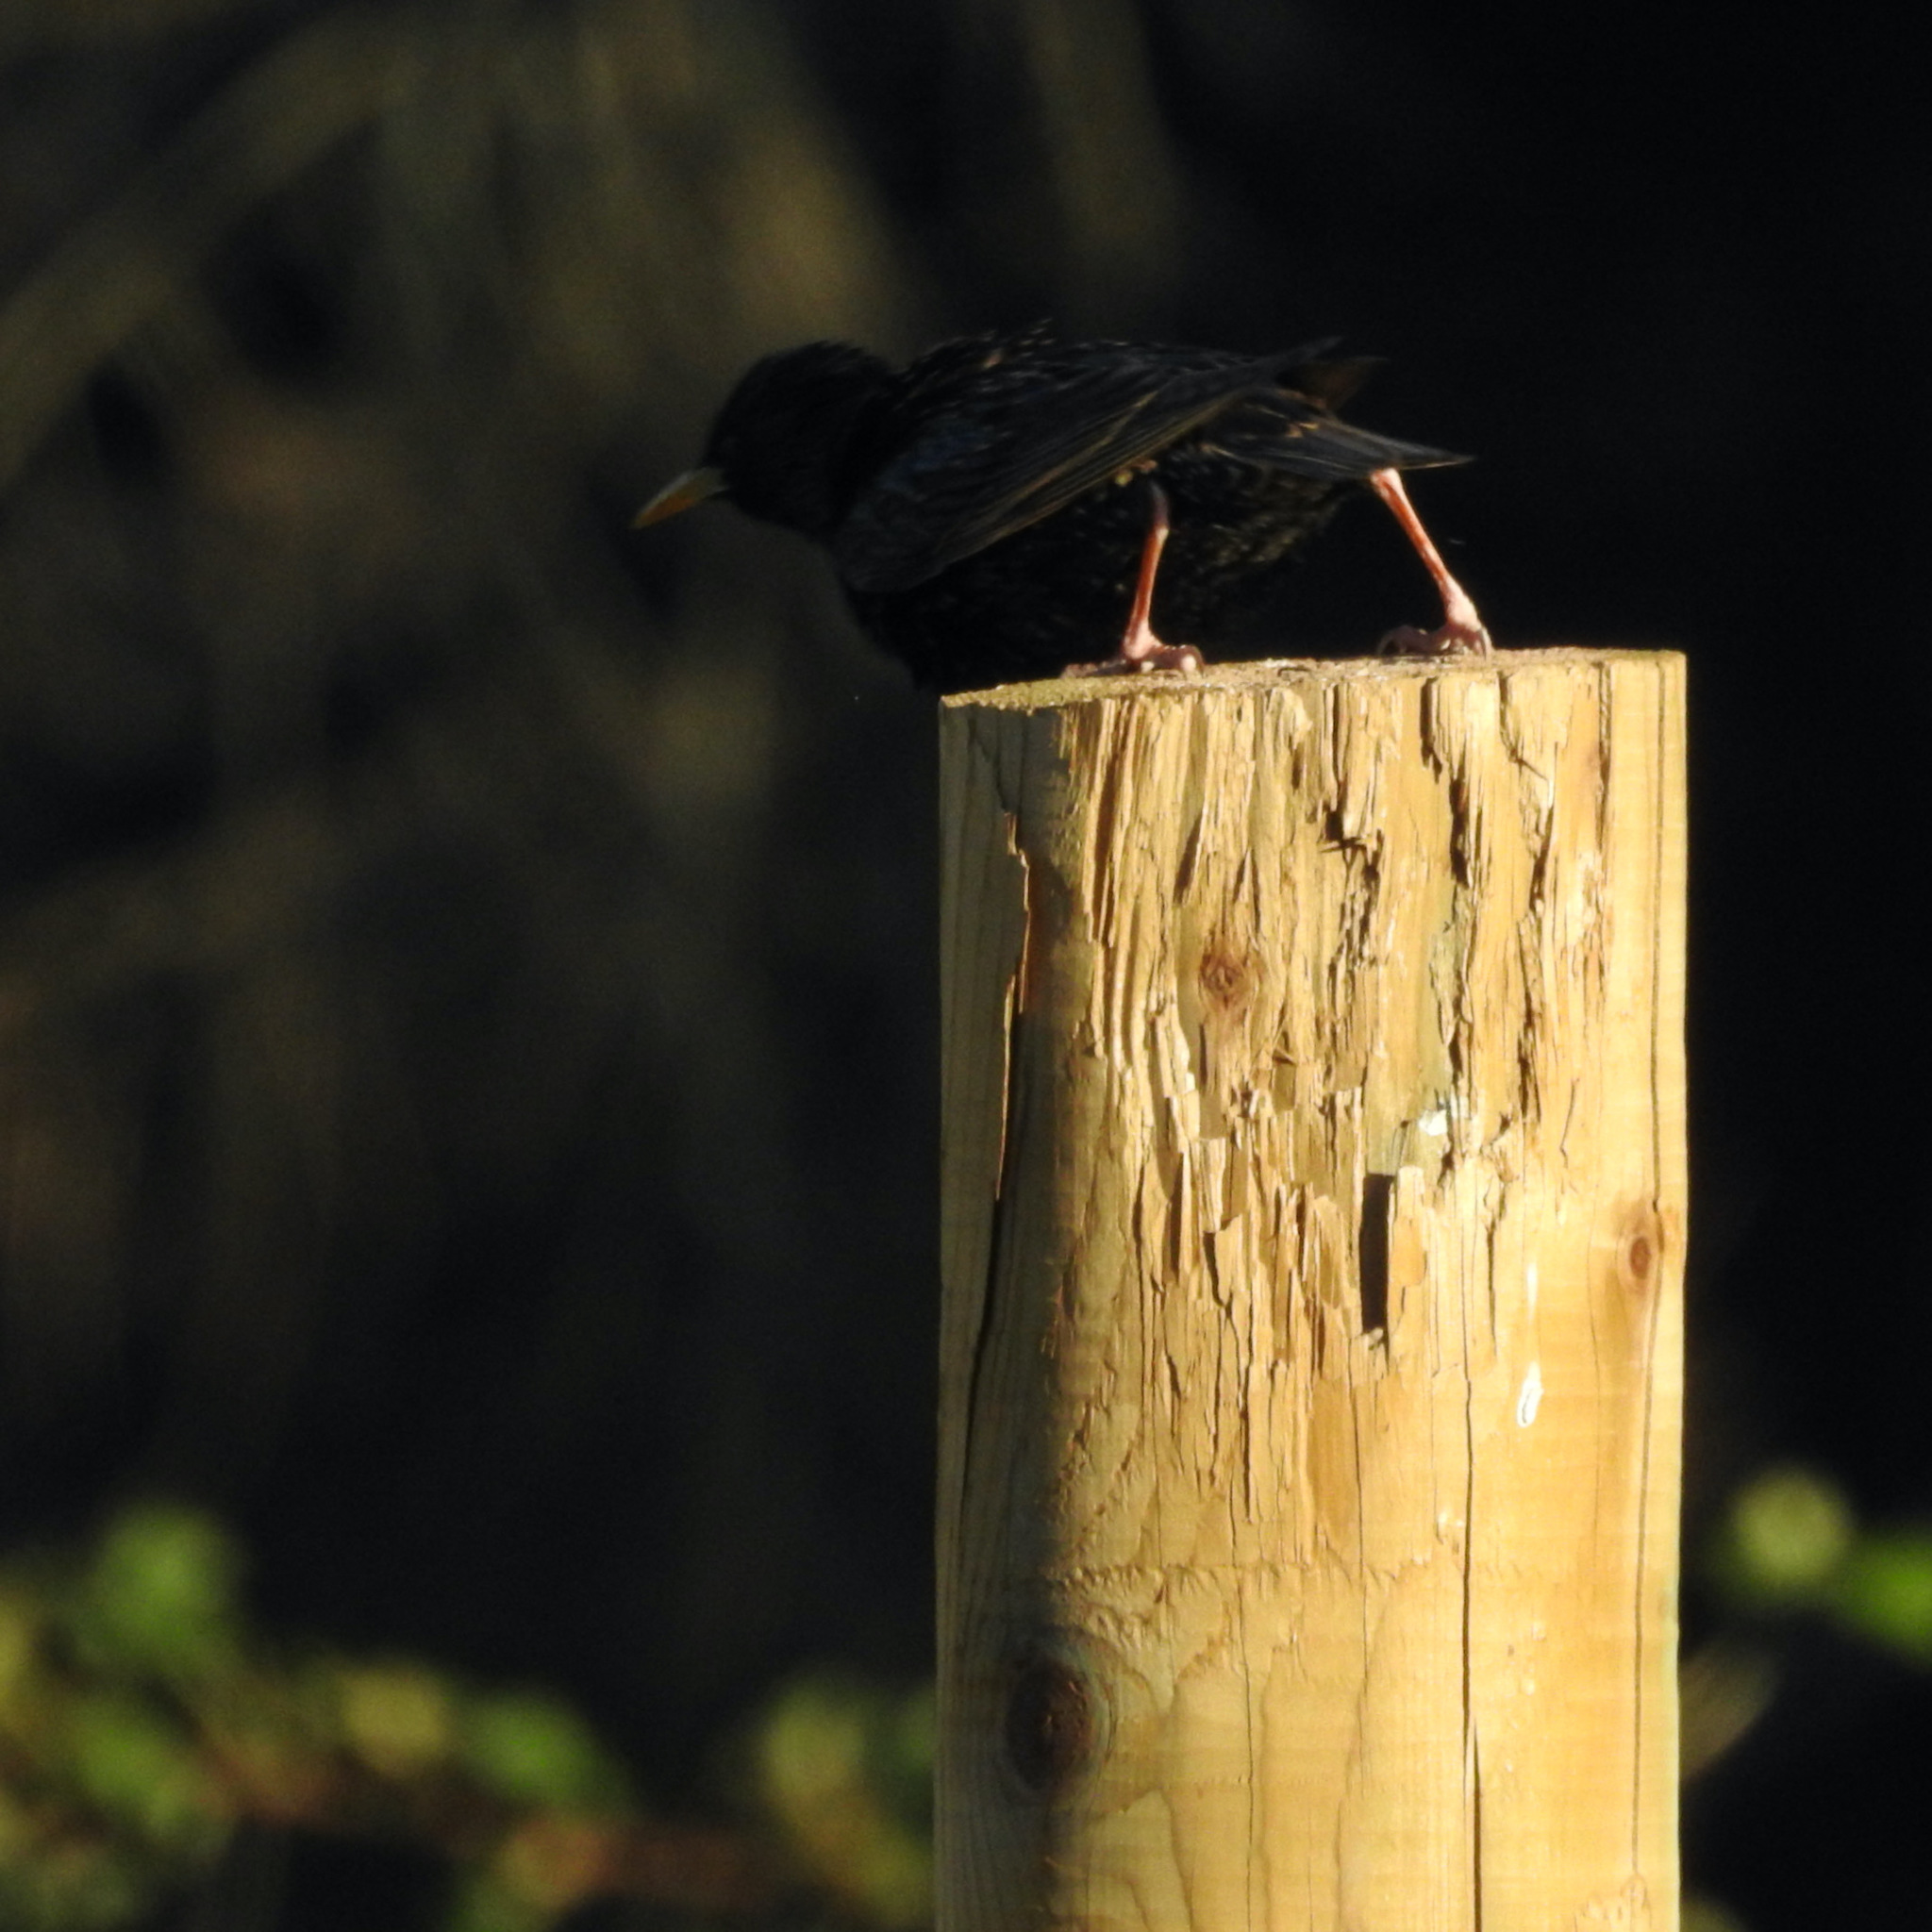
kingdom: Animalia
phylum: Chordata
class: Aves
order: Passeriformes
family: Sturnidae
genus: Sturnus
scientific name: Sturnus vulgaris
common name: Common starling
